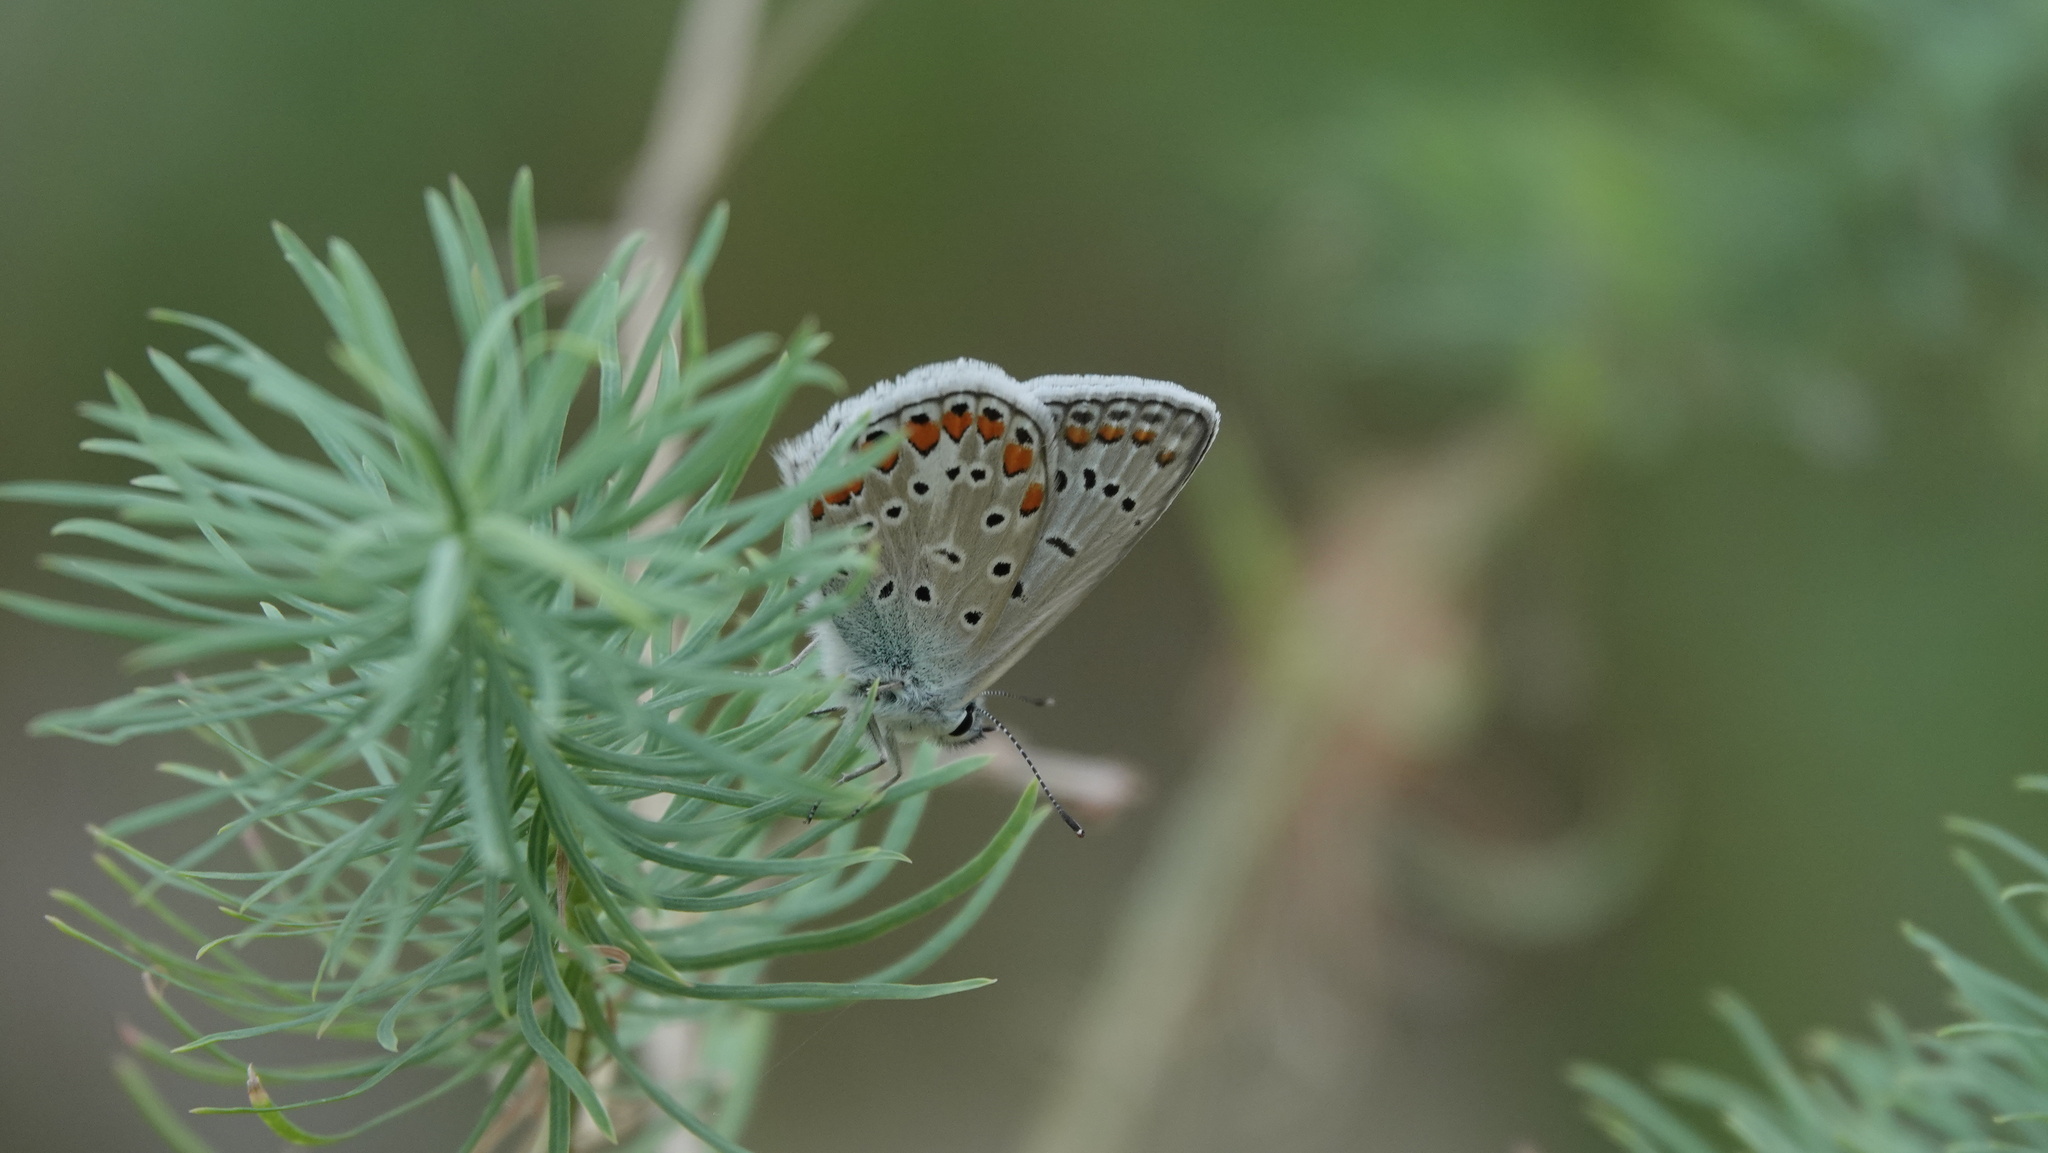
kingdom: Animalia
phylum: Arthropoda
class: Insecta
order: Lepidoptera
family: Lycaenidae
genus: Polyommatus
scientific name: Polyommatus icarus
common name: Common blue
